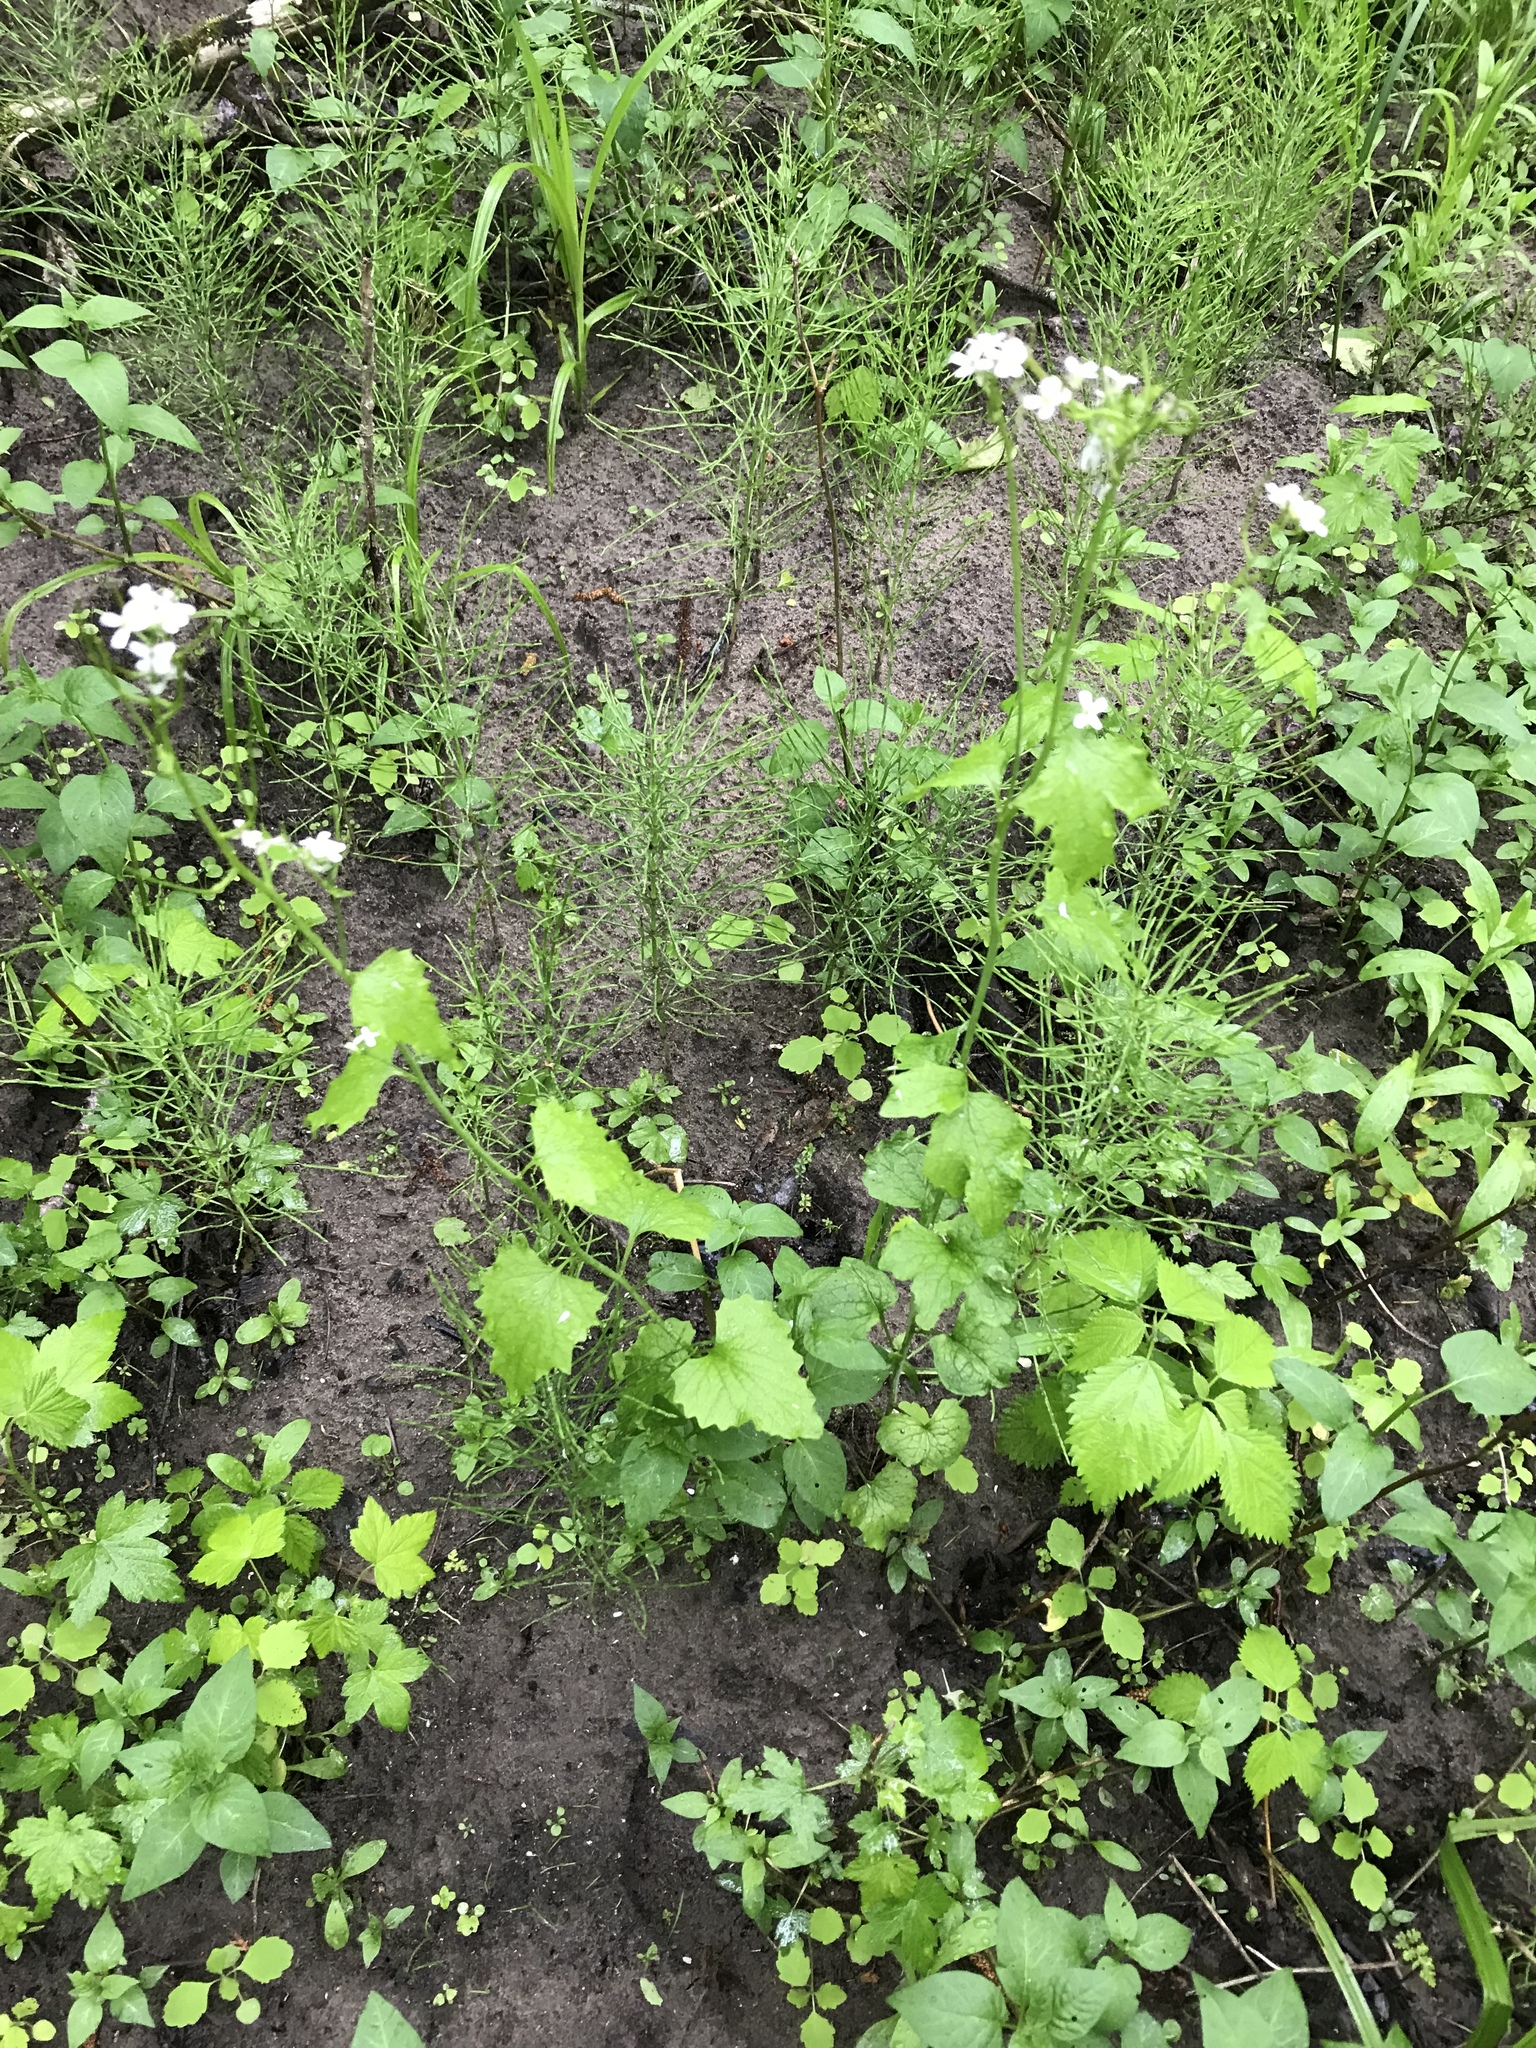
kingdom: Plantae
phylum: Tracheophyta
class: Magnoliopsida
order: Brassicales
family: Brassicaceae
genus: Alliaria
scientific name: Alliaria petiolata
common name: Garlic mustard
